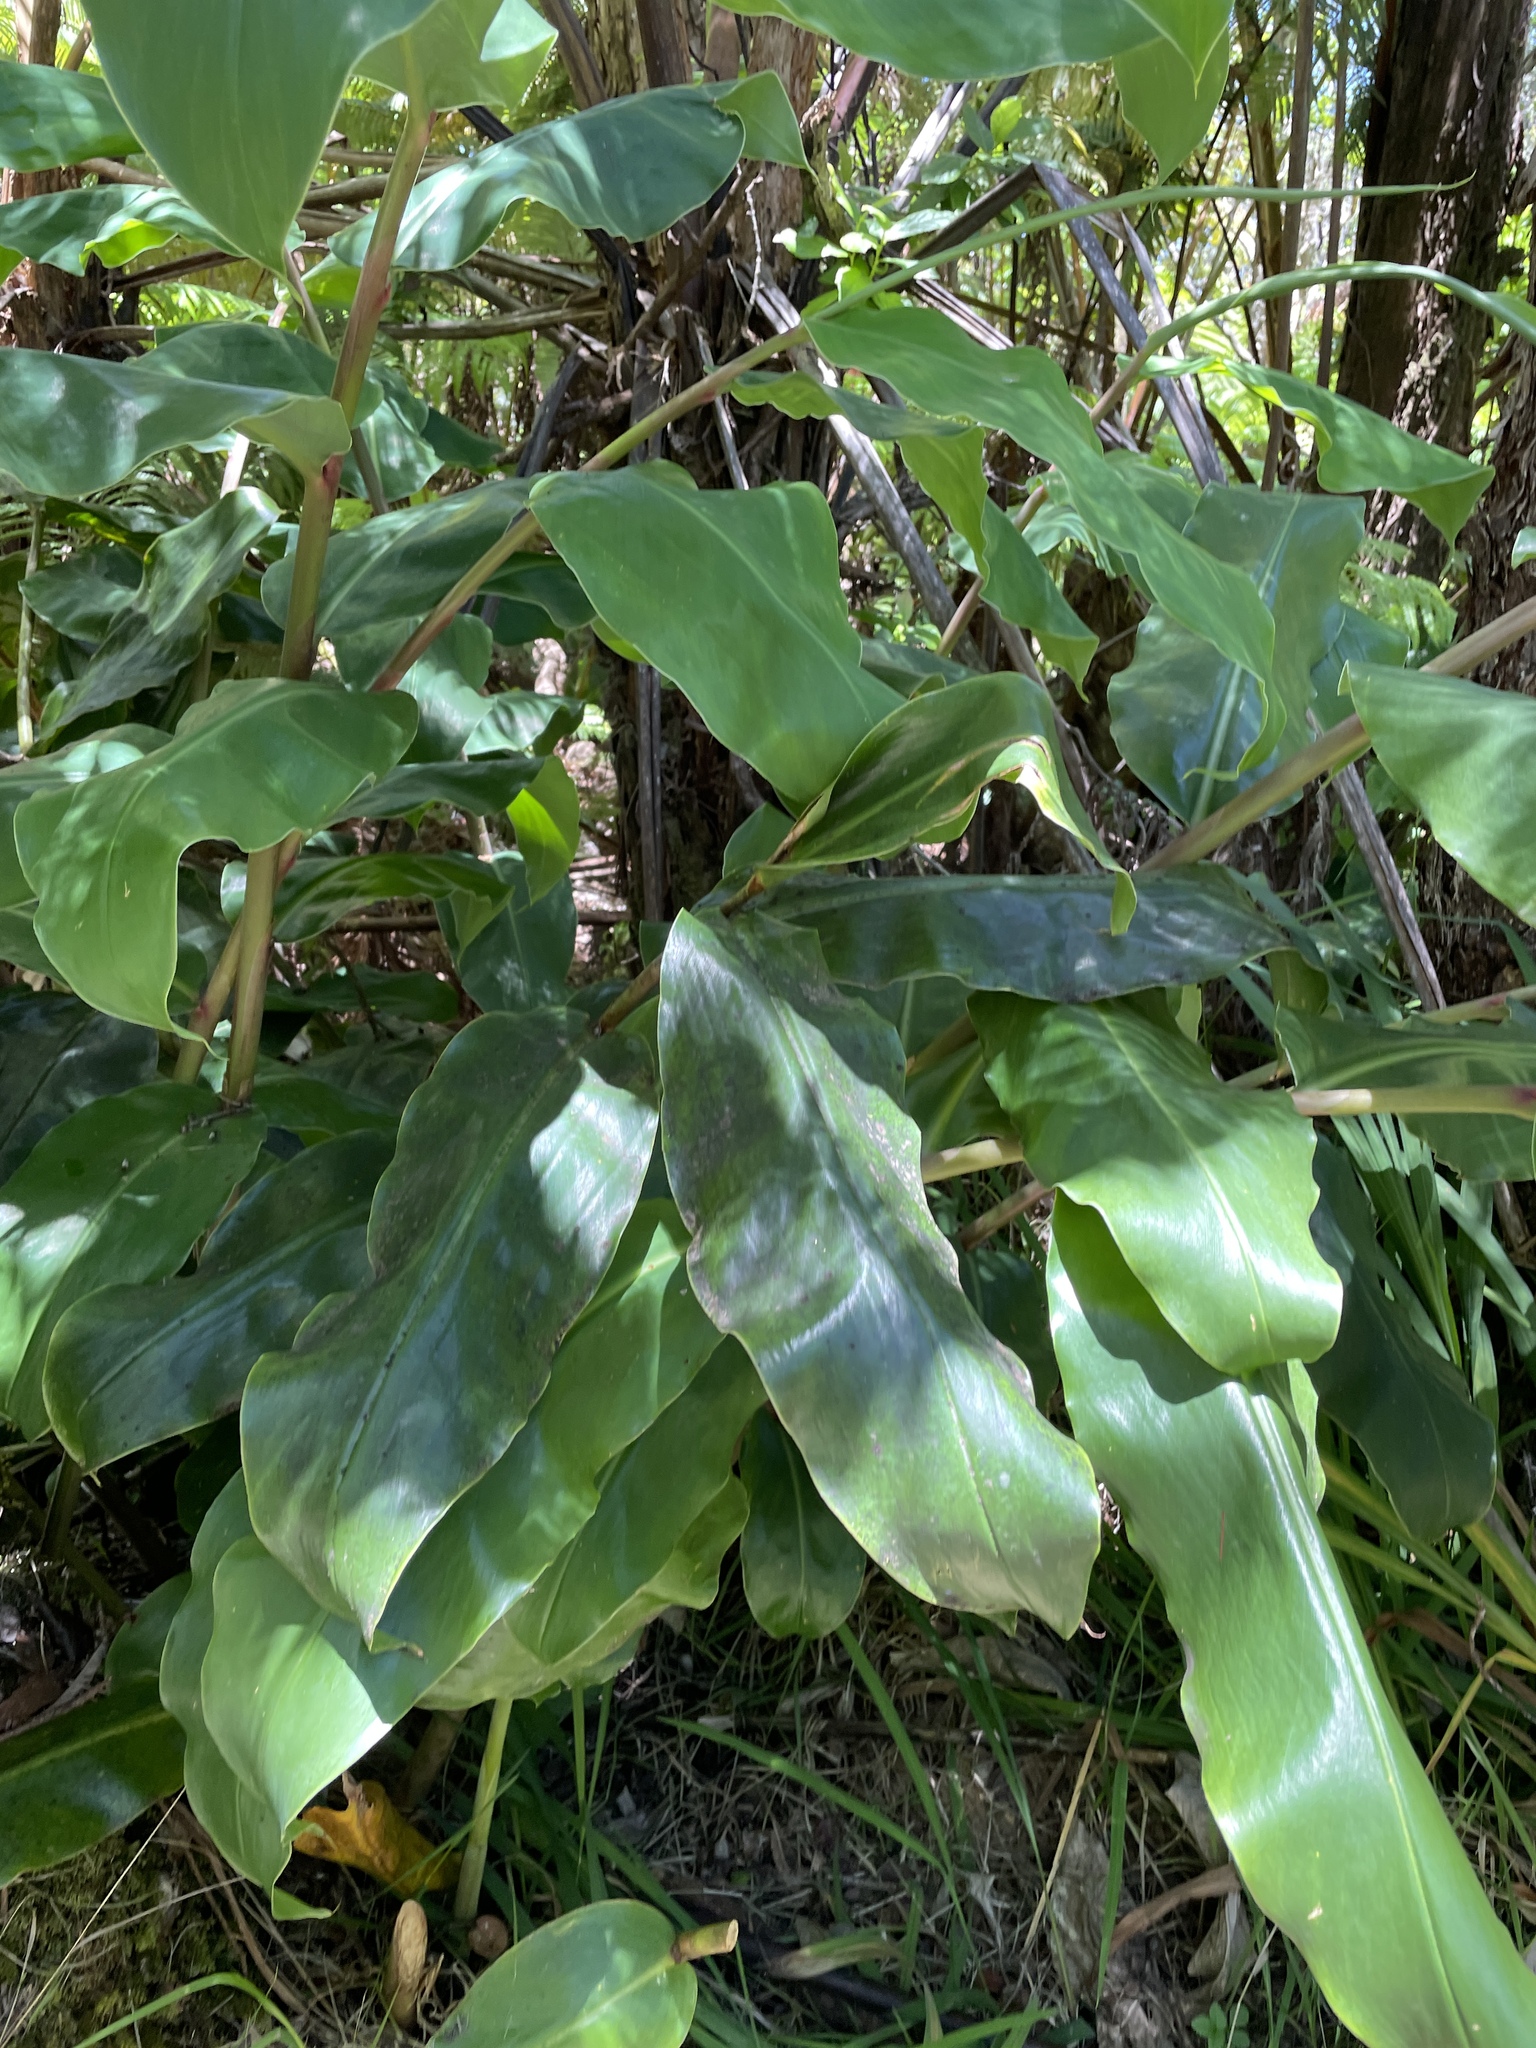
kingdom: Plantae
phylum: Tracheophyta
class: Liliopsida
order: Zingiberales
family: Zingiberaceae
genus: Hedychium
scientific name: Hedychium gardnerianum
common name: Himalayan ginger
